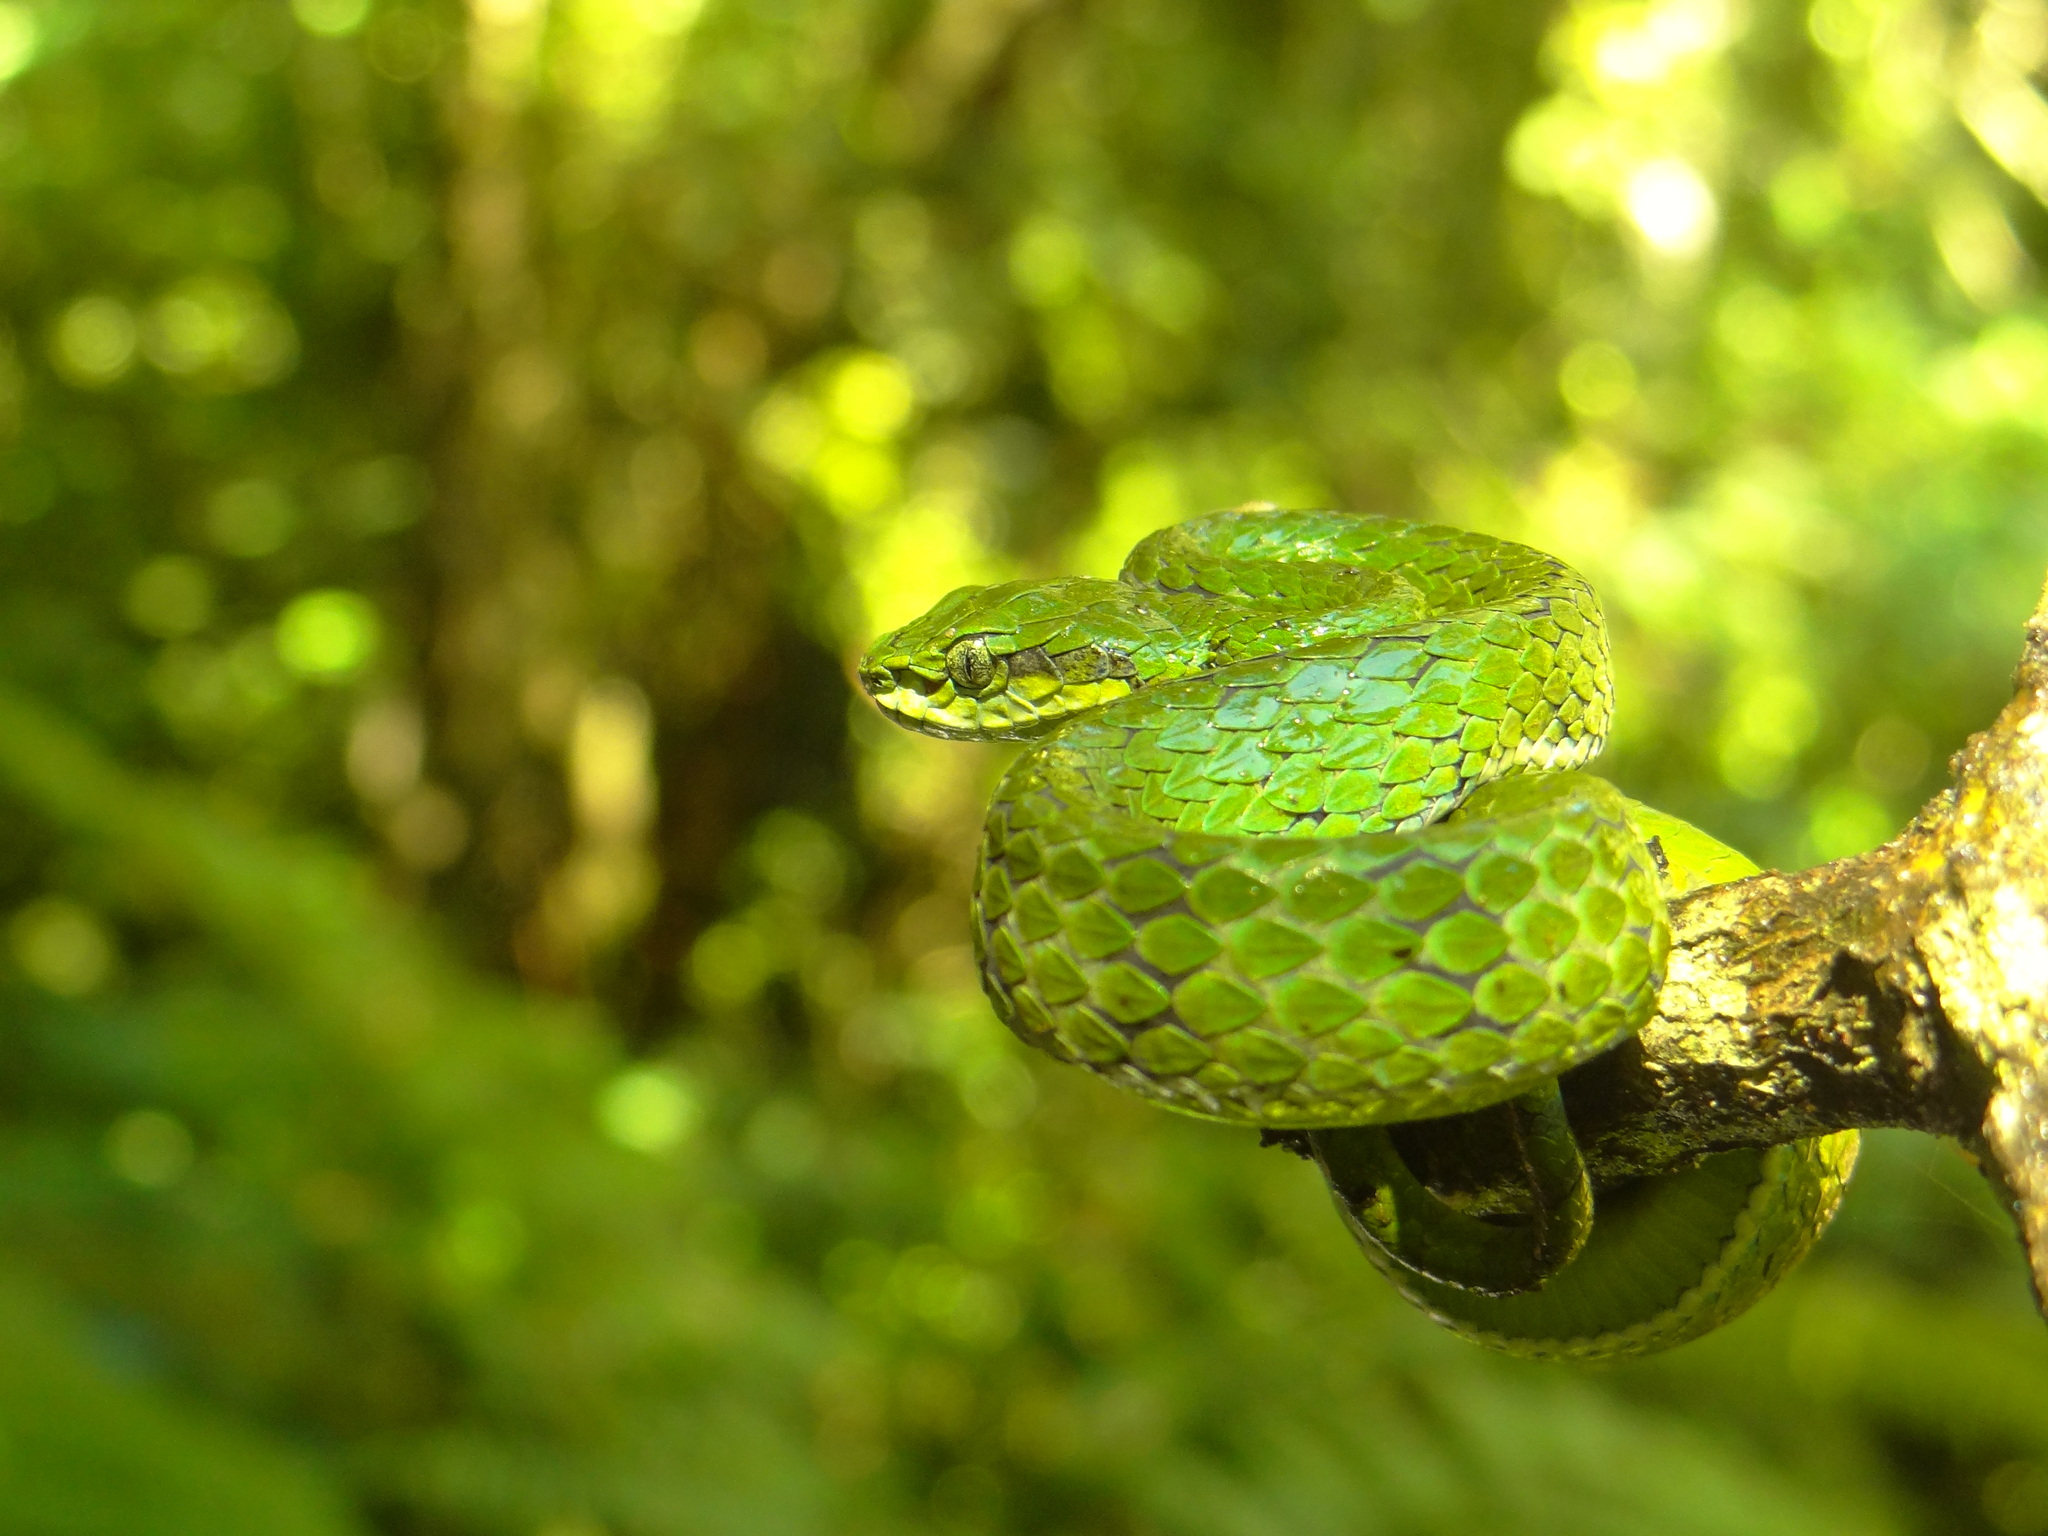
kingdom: Animalia
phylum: Chordata
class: Squamata
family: Viperidae
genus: Craspedocephalus
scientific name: Craspedocephalus macrolepis
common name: Large-scaled pit viper
